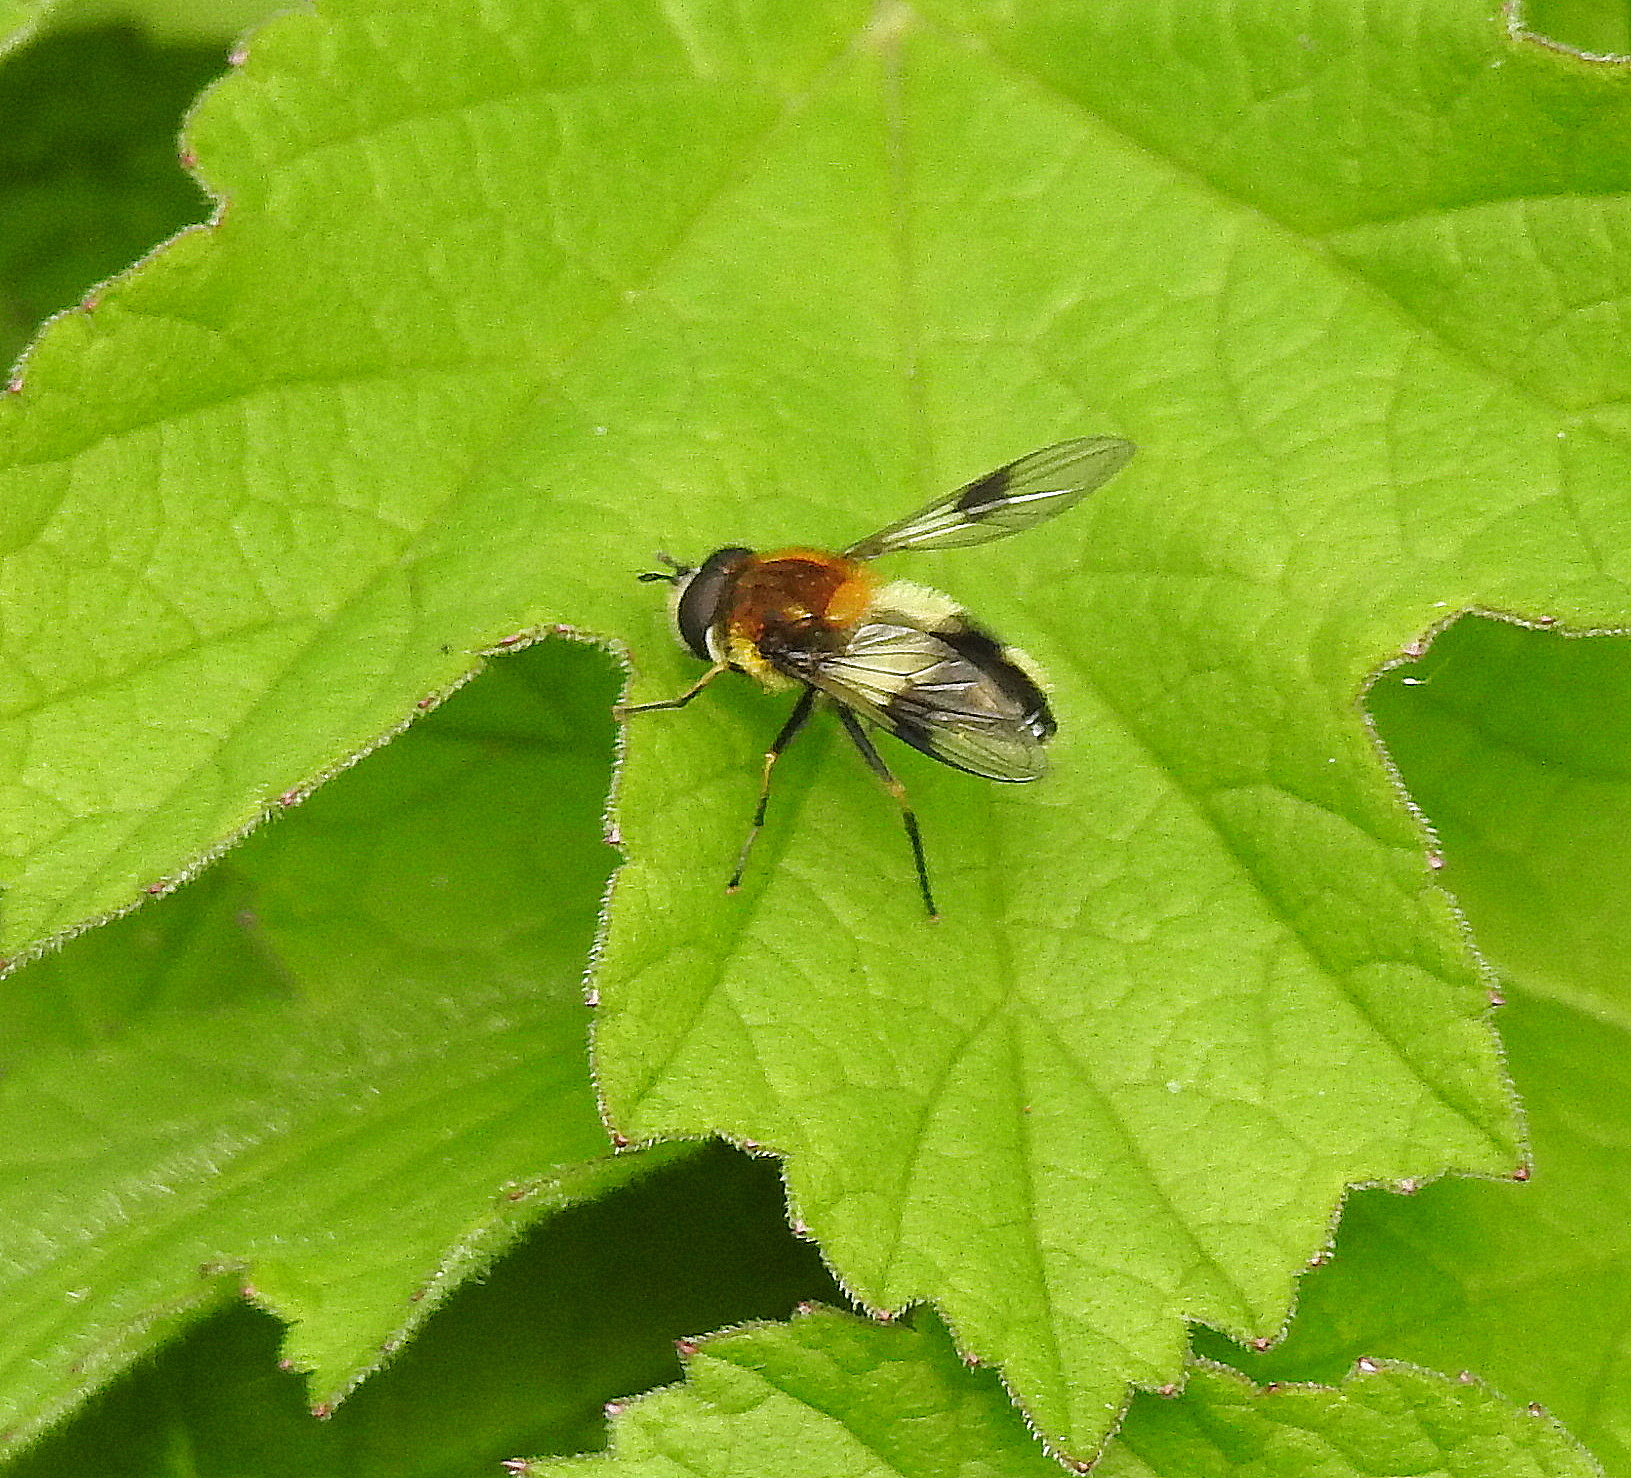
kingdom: Animalia
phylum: Arthropoda
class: Insecta
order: Diptera
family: Syrphidae
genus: Leucozona
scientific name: Leucozona lucorum
